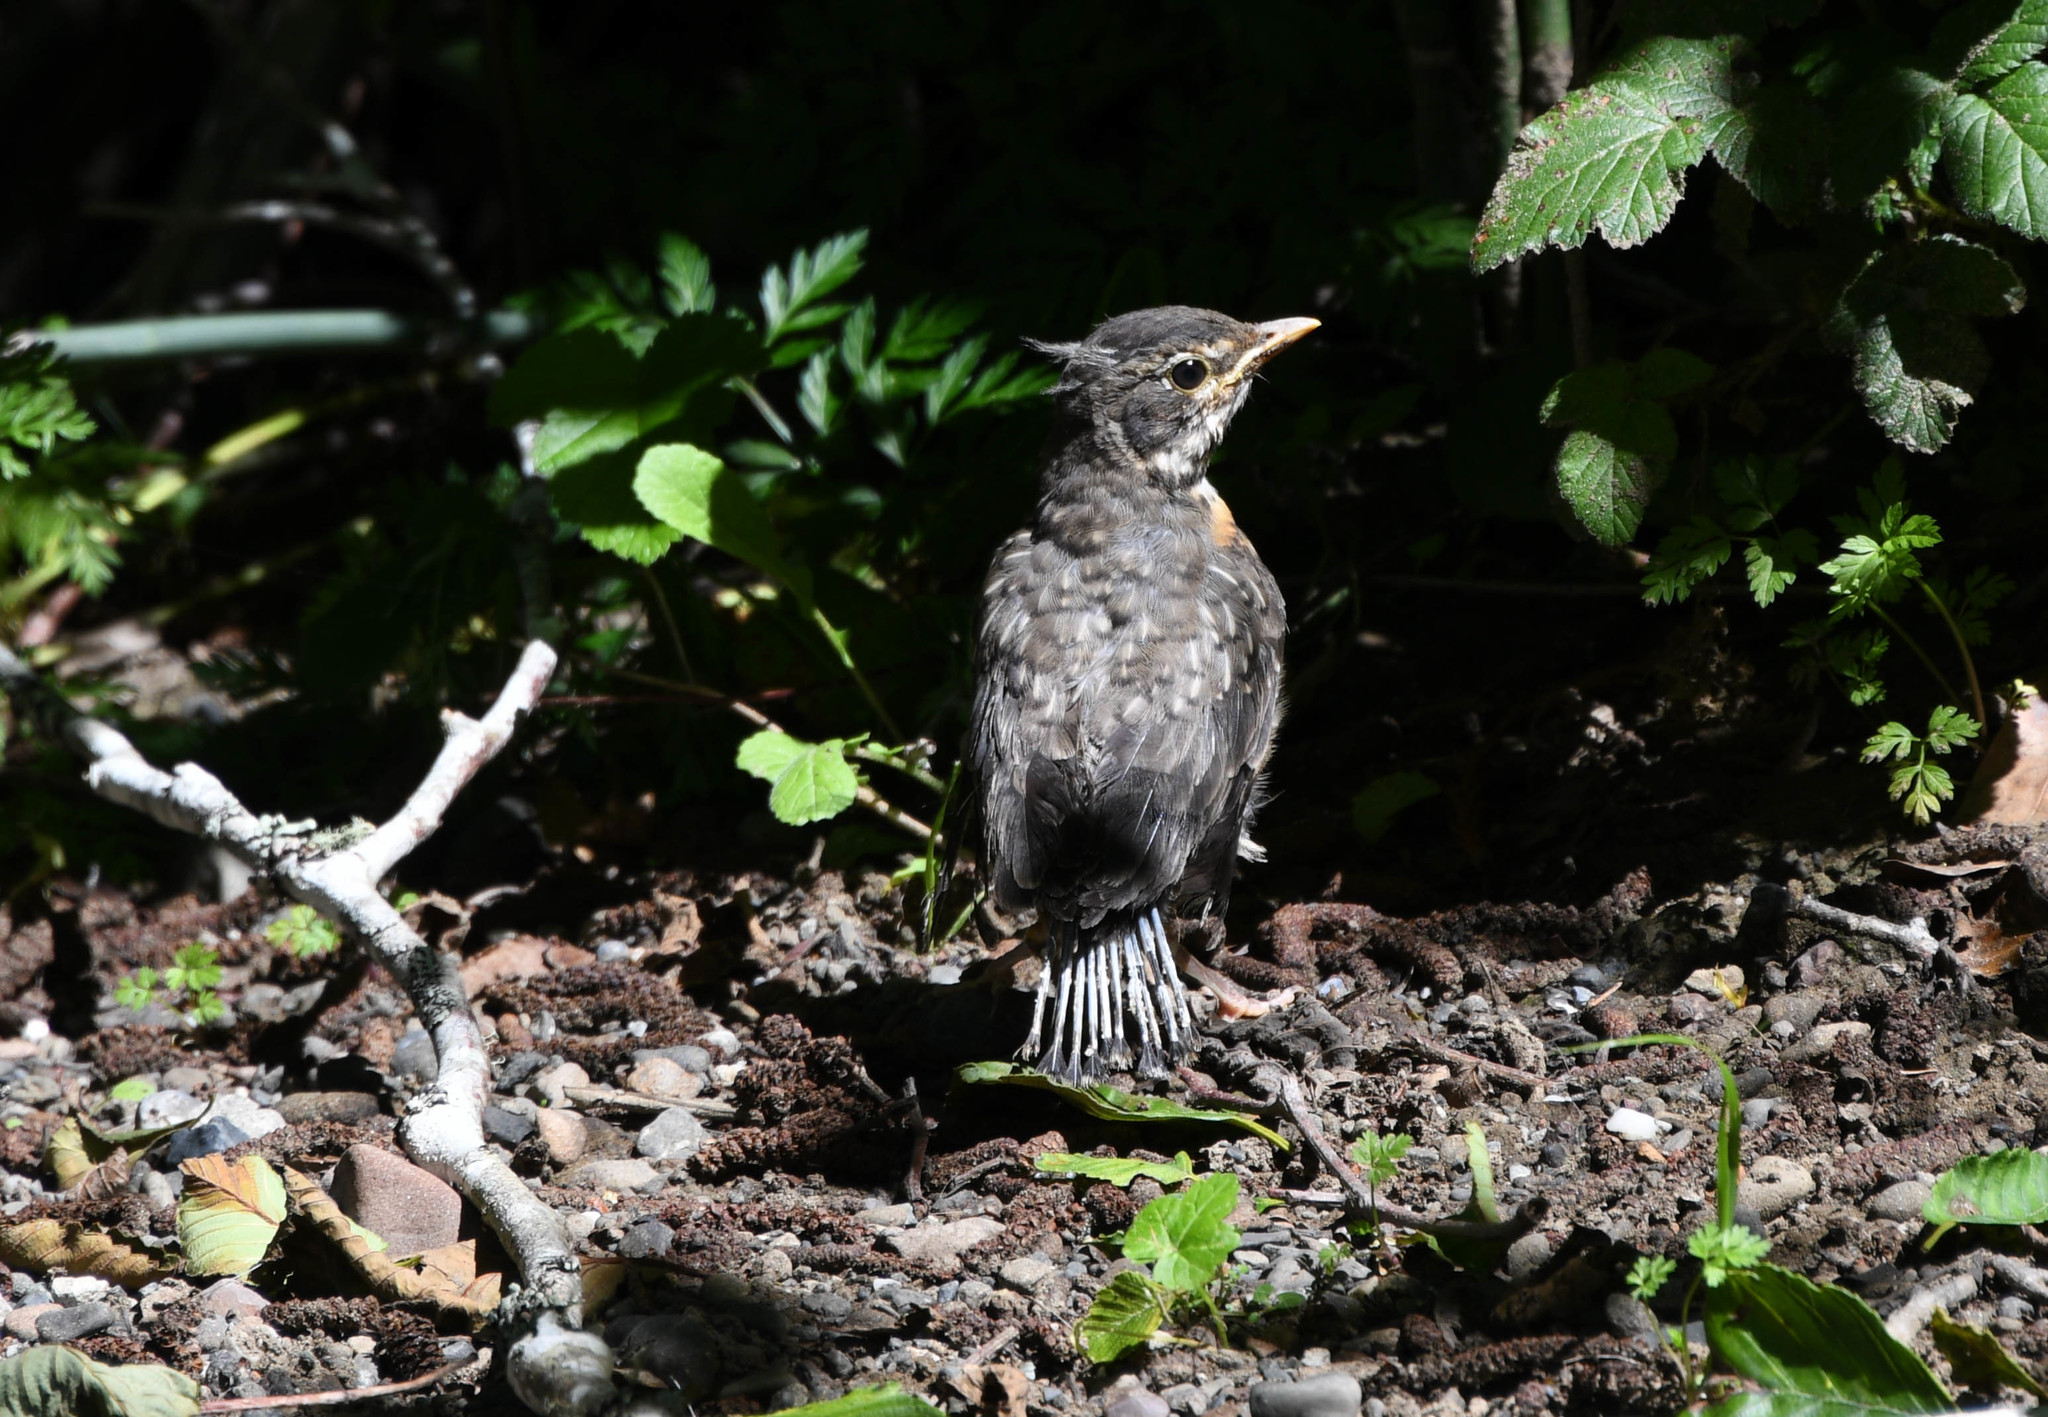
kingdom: Animalia
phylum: Chordata
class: Aves
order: Passeriformes
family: Turdidae
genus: Turdus
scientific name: Turdus migratorius
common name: American robin
